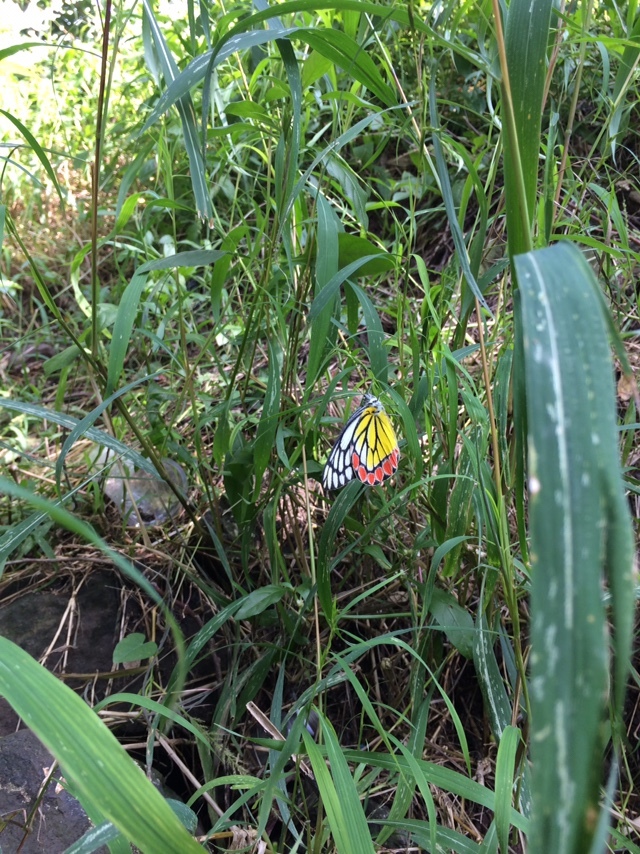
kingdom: Animalia
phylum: Arthropoda
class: Insecta
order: Lepidoptera
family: Pieridae
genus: Delias
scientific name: Delias eucharis
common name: Common jezebel
